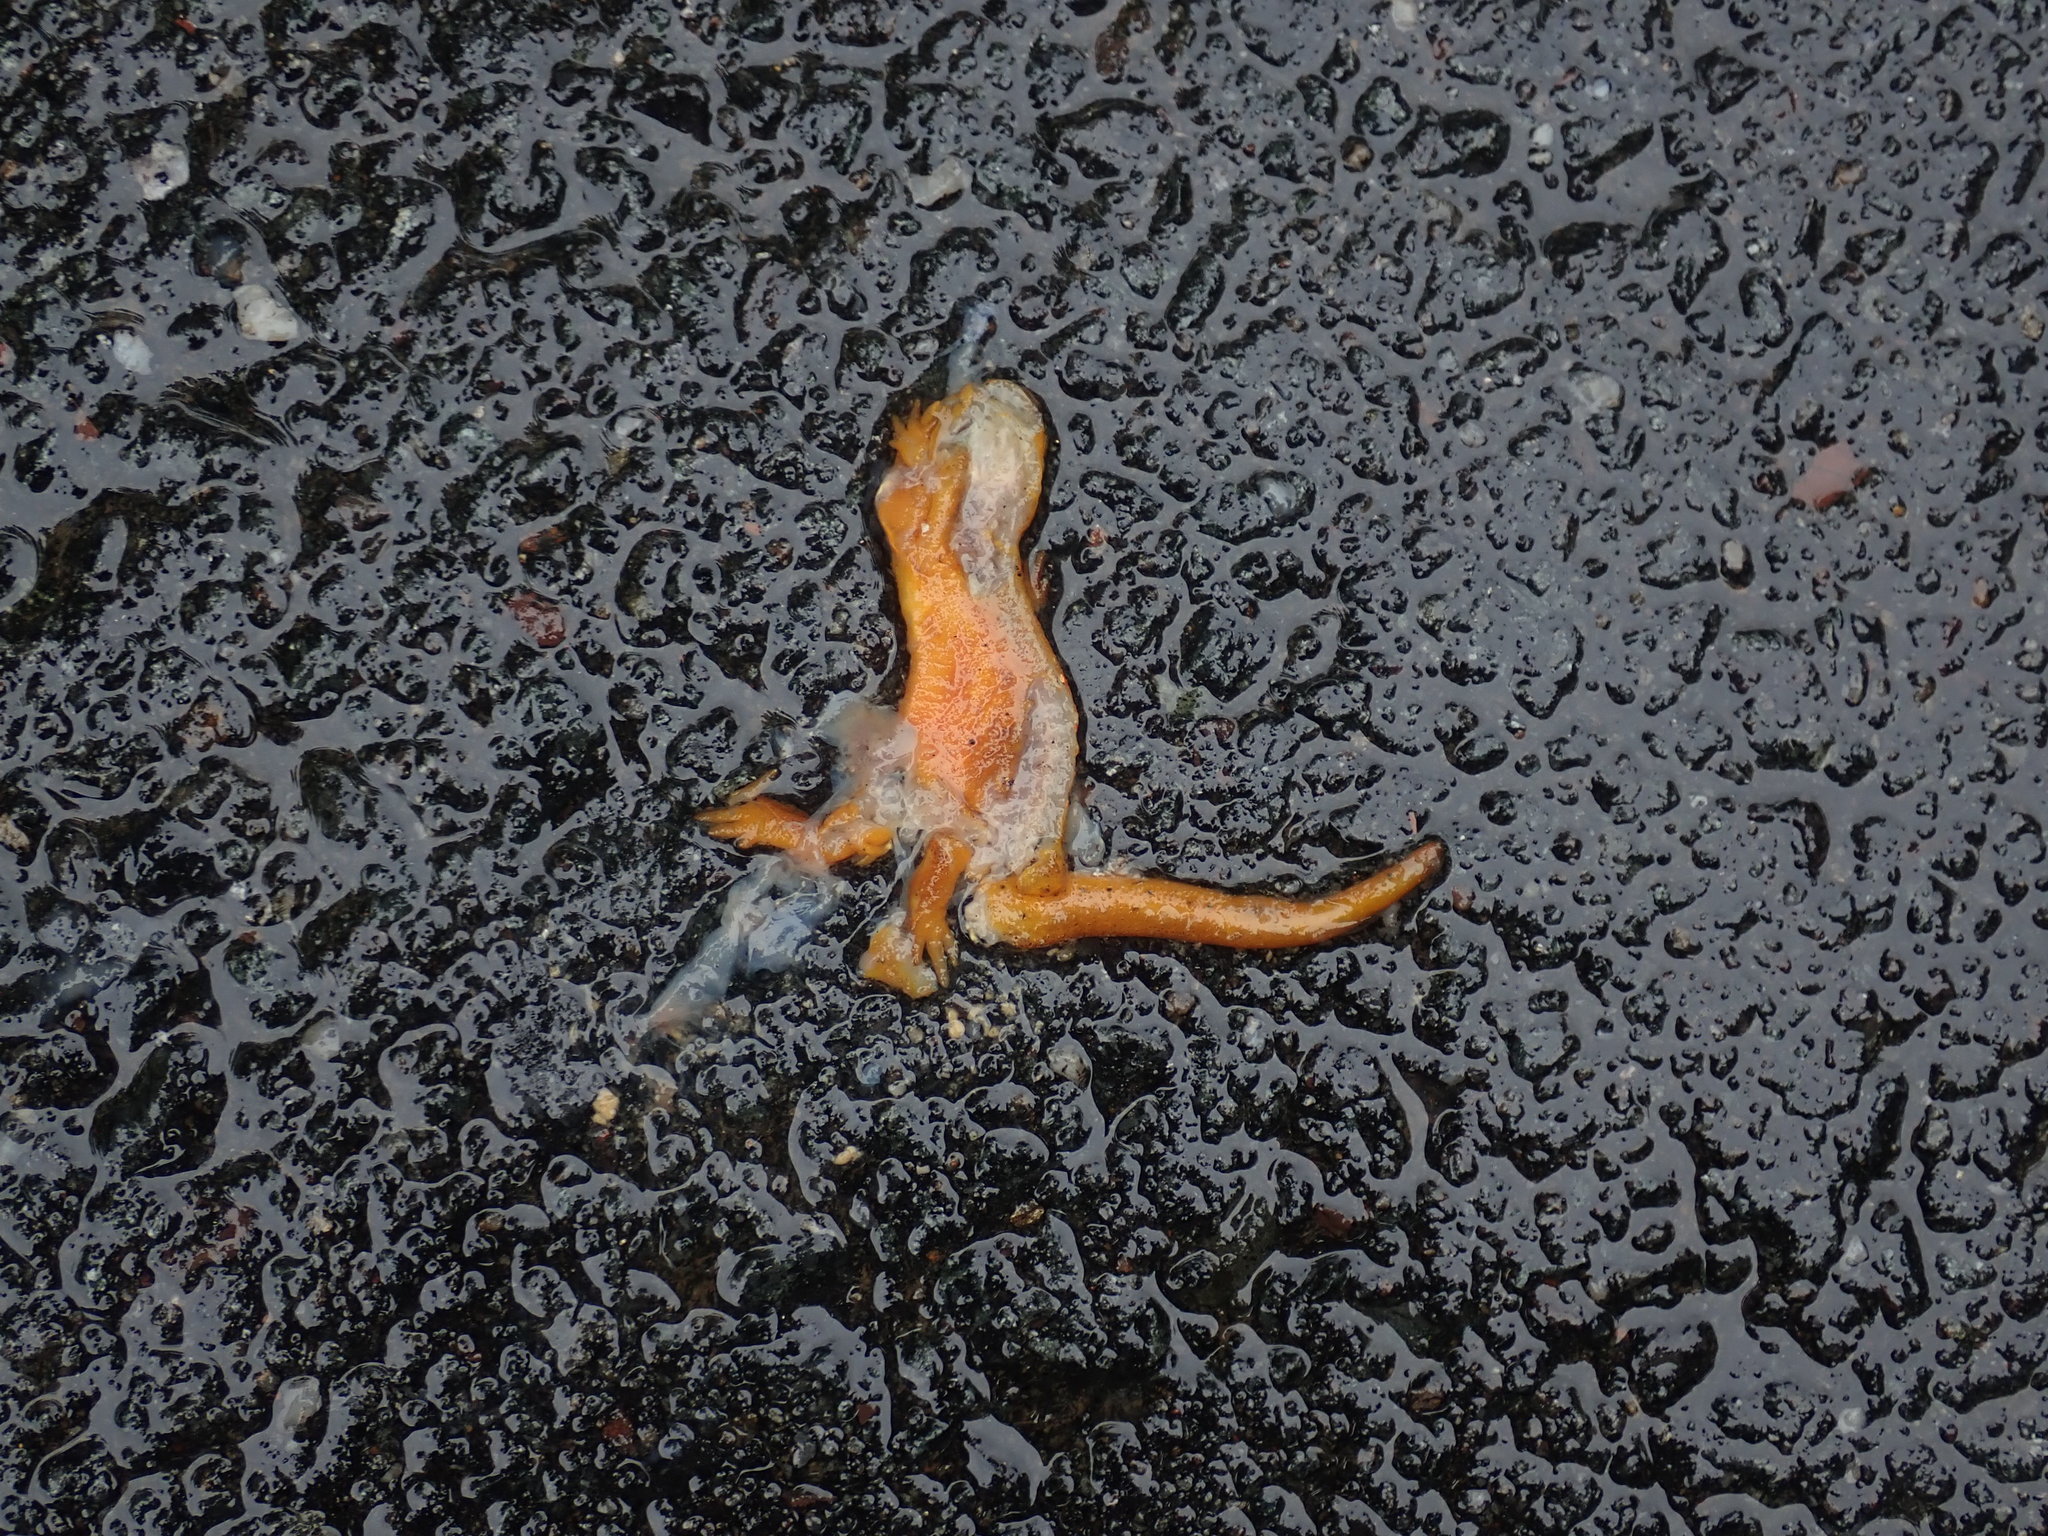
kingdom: Animalia
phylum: Chordata
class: Amphibia
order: Caudata
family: Salamandridae
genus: Notophthalmus
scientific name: Notophthalmus viridescens
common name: Eastern newt
